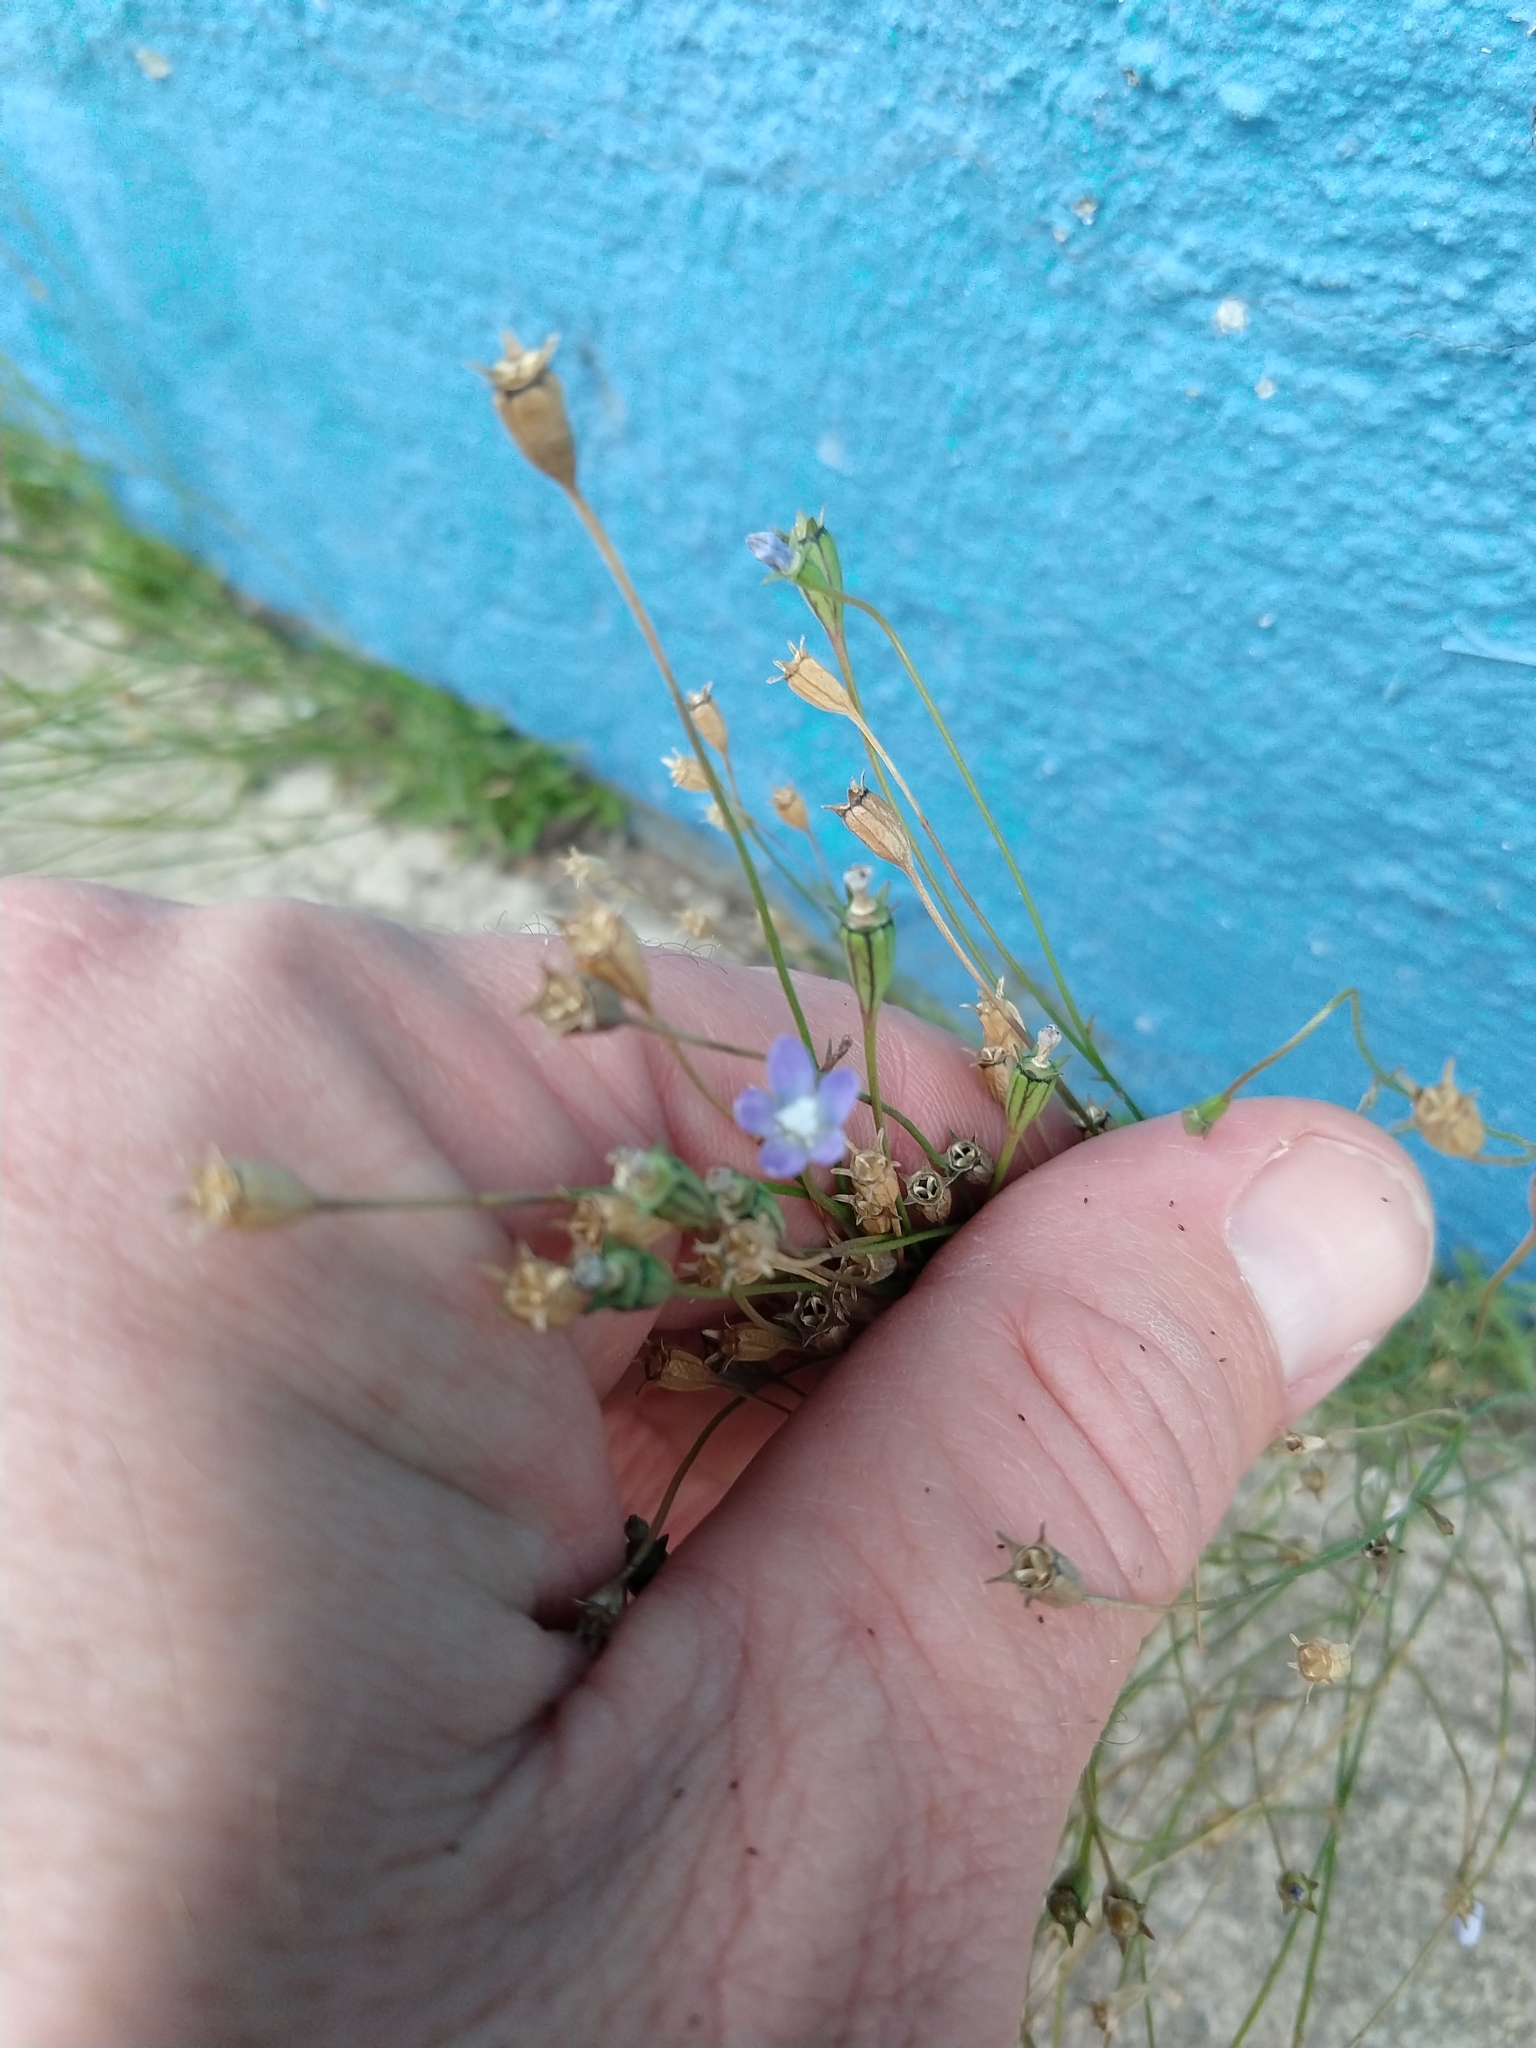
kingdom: Plantae
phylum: Tracheophyta
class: Magnoliopsida
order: Asterales
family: Campanulaceae
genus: Wahlenbergia
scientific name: Wahlenbergia marginata
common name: Southern rockbell
